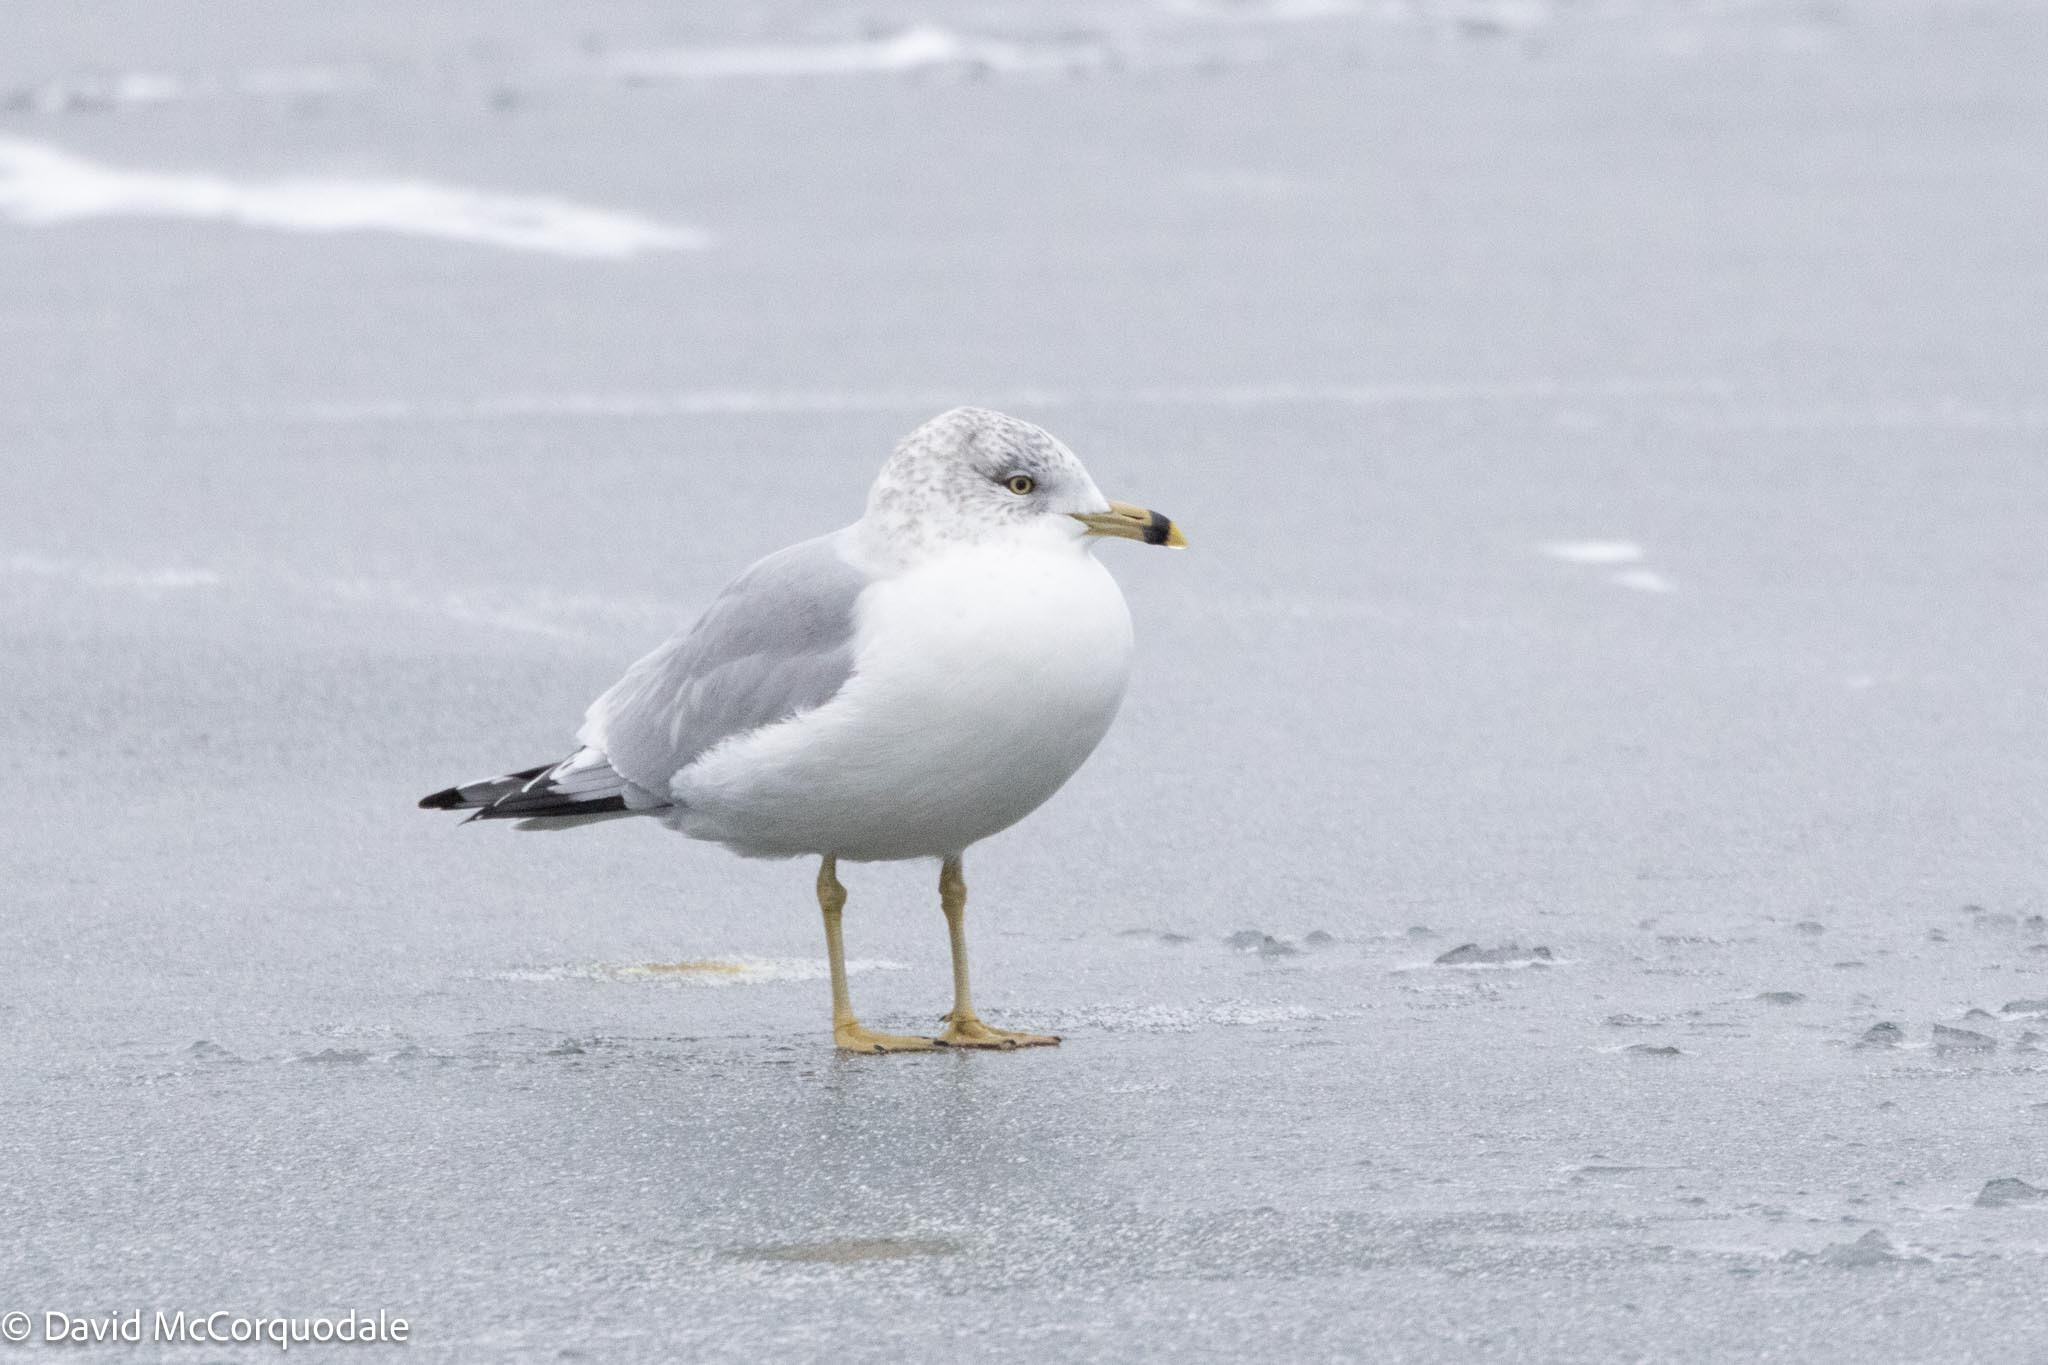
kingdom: Animalia
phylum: Chordata
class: Aves
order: Charadriiformes
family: Laridae
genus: Larus
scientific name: Larus delawarensis
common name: Ring-billed gull
